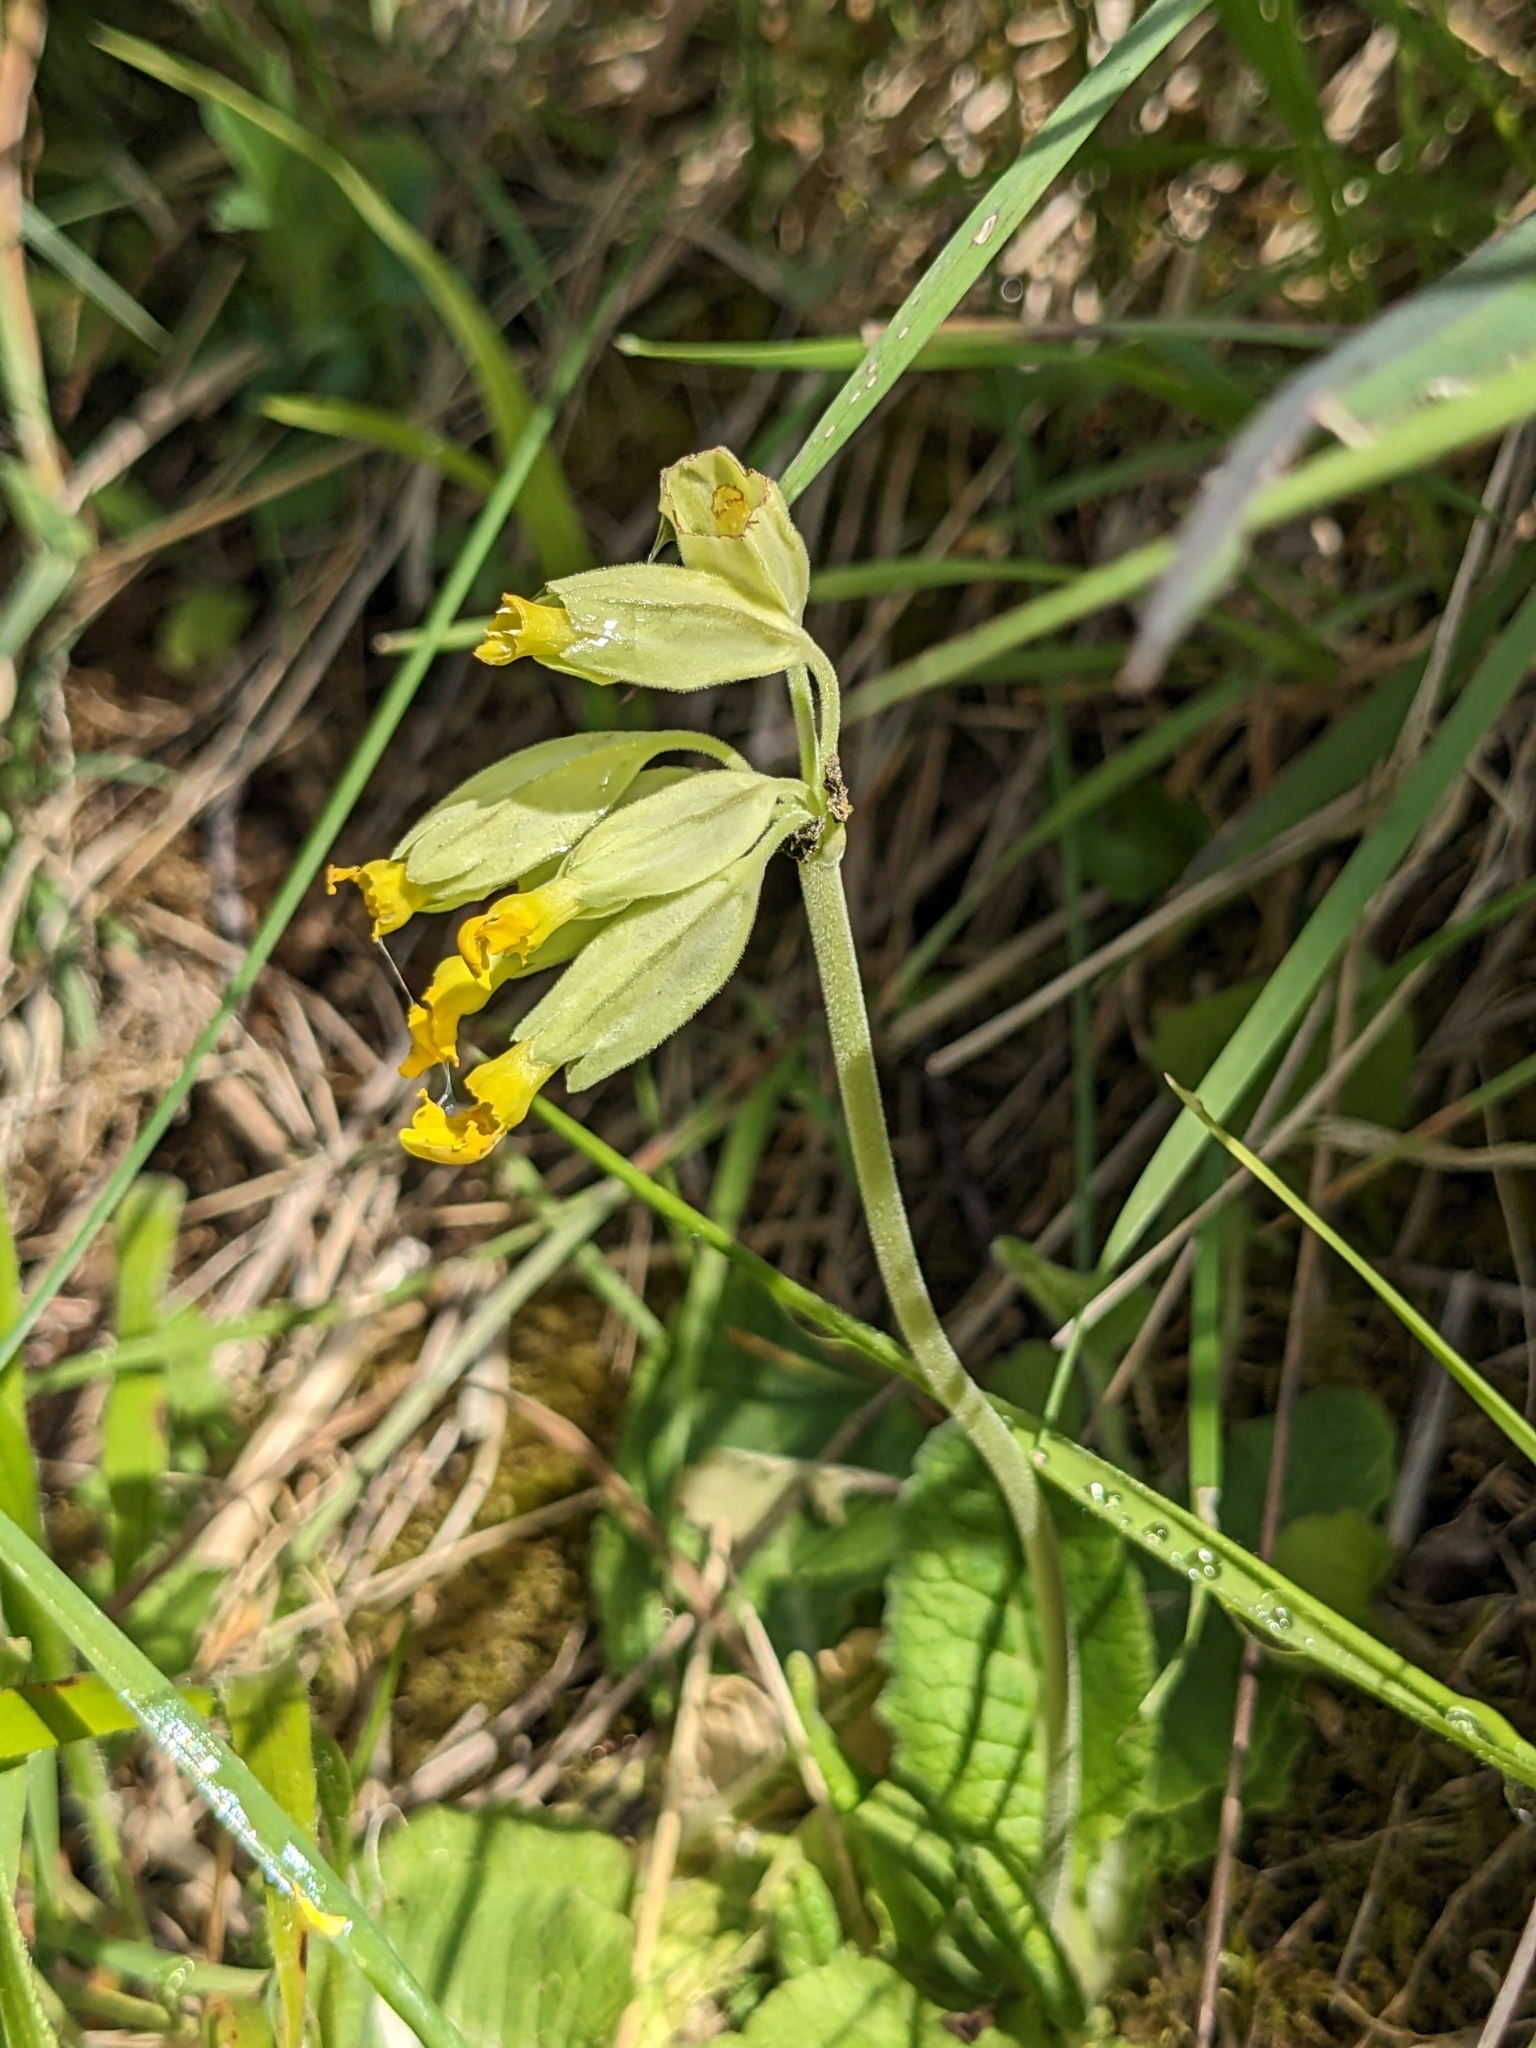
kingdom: Plantae
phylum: Tracheophyta
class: Magnoliopsida
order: Ericales
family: Primulaceae
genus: Primula
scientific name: Primula veris
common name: Cowslip
